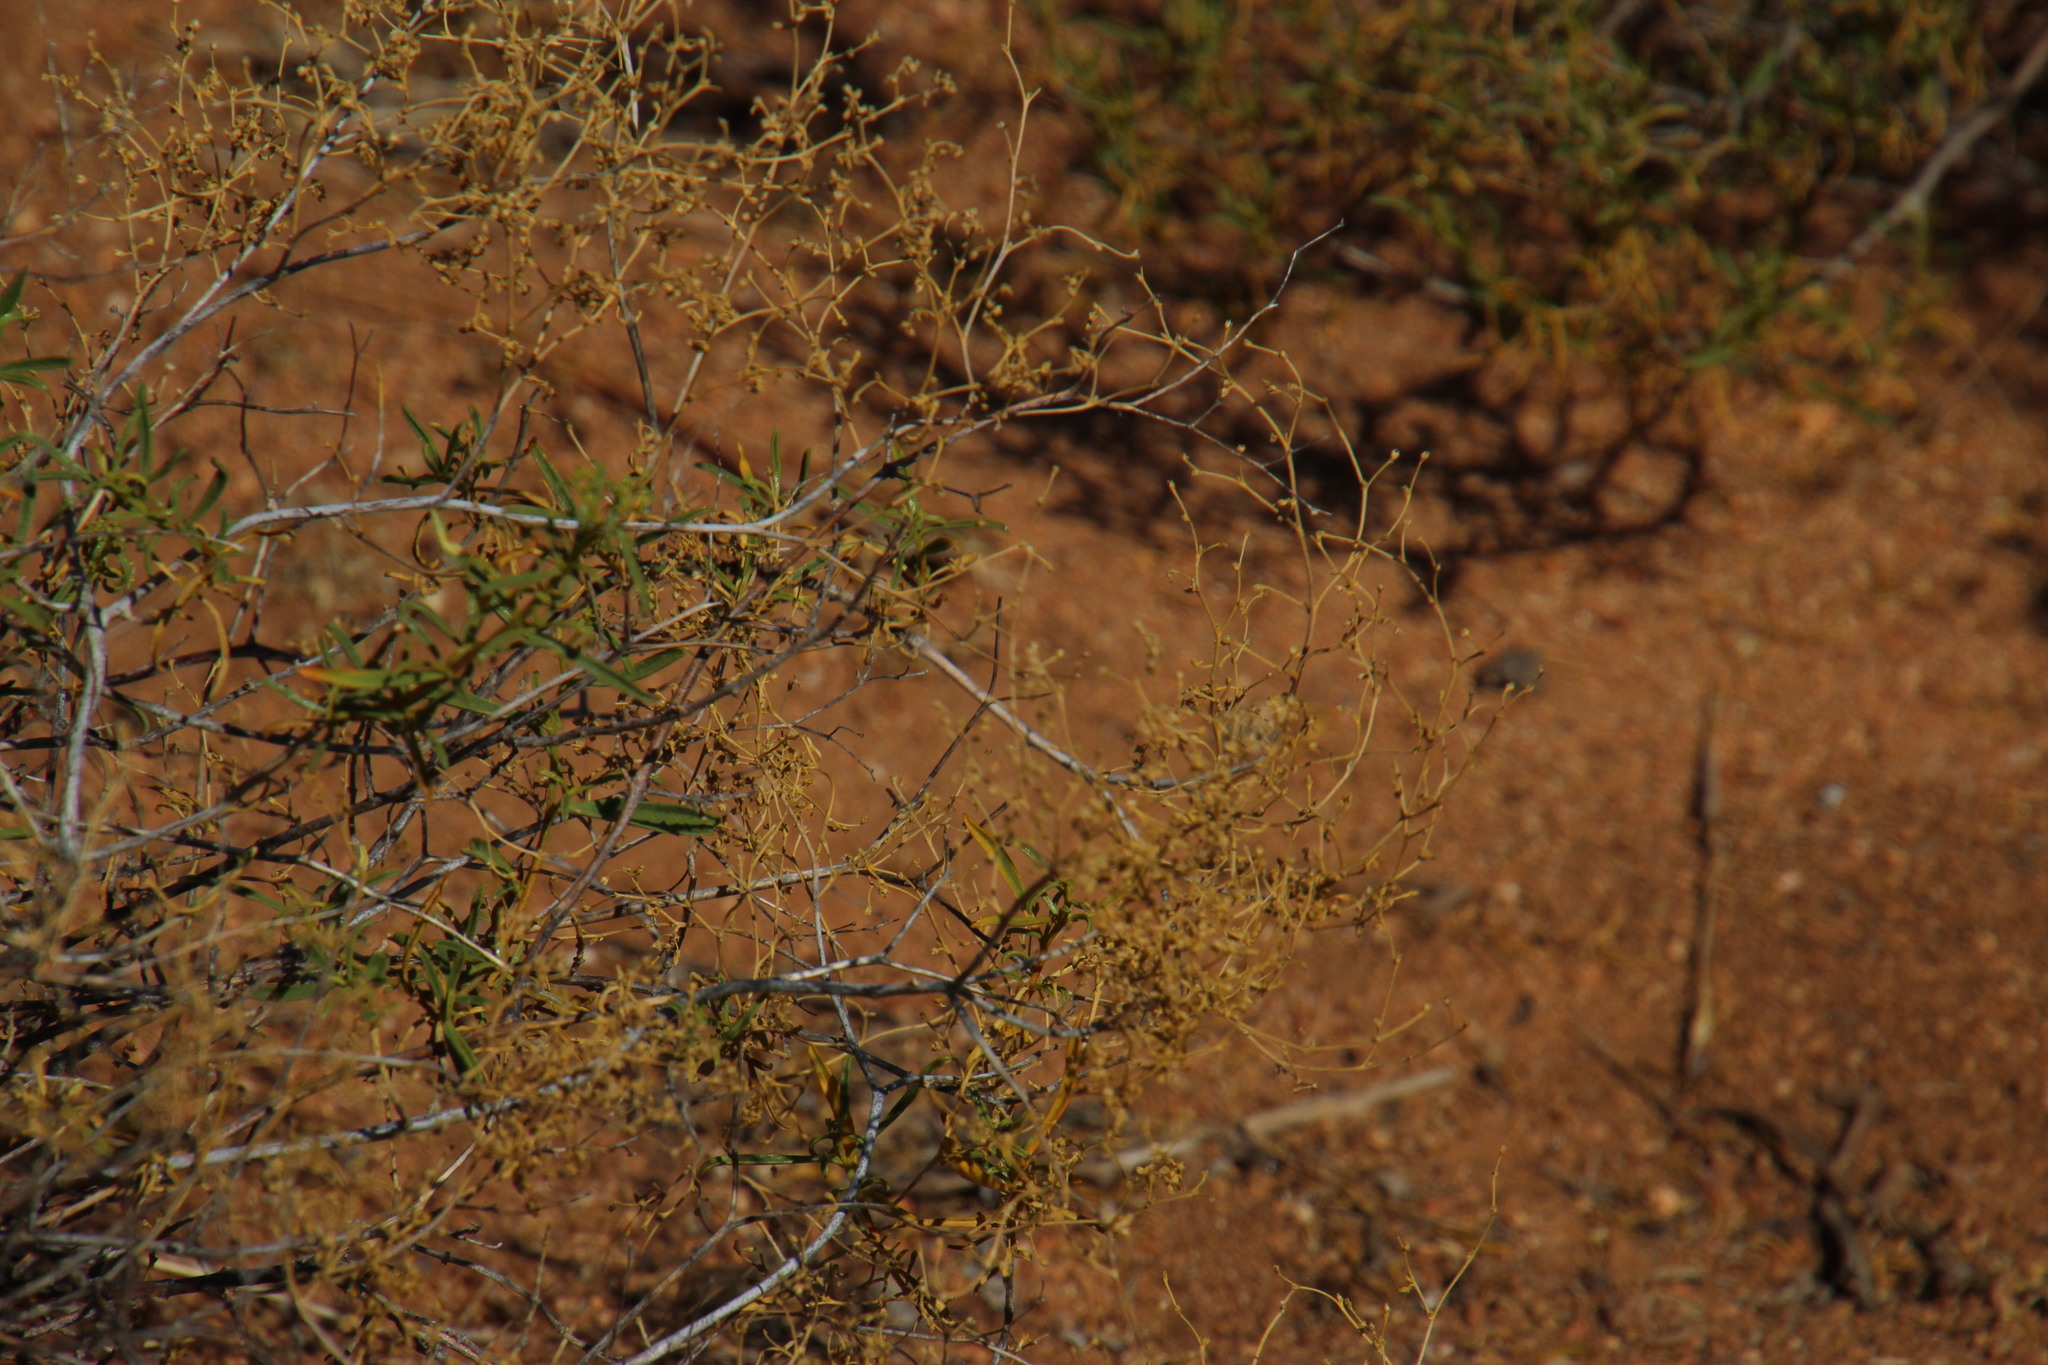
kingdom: Plantae
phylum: Tracheophyta
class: Magnoliopsida
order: Caryophyllales
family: Aizoaceae
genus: Aizoon
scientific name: Aizoon africanum
